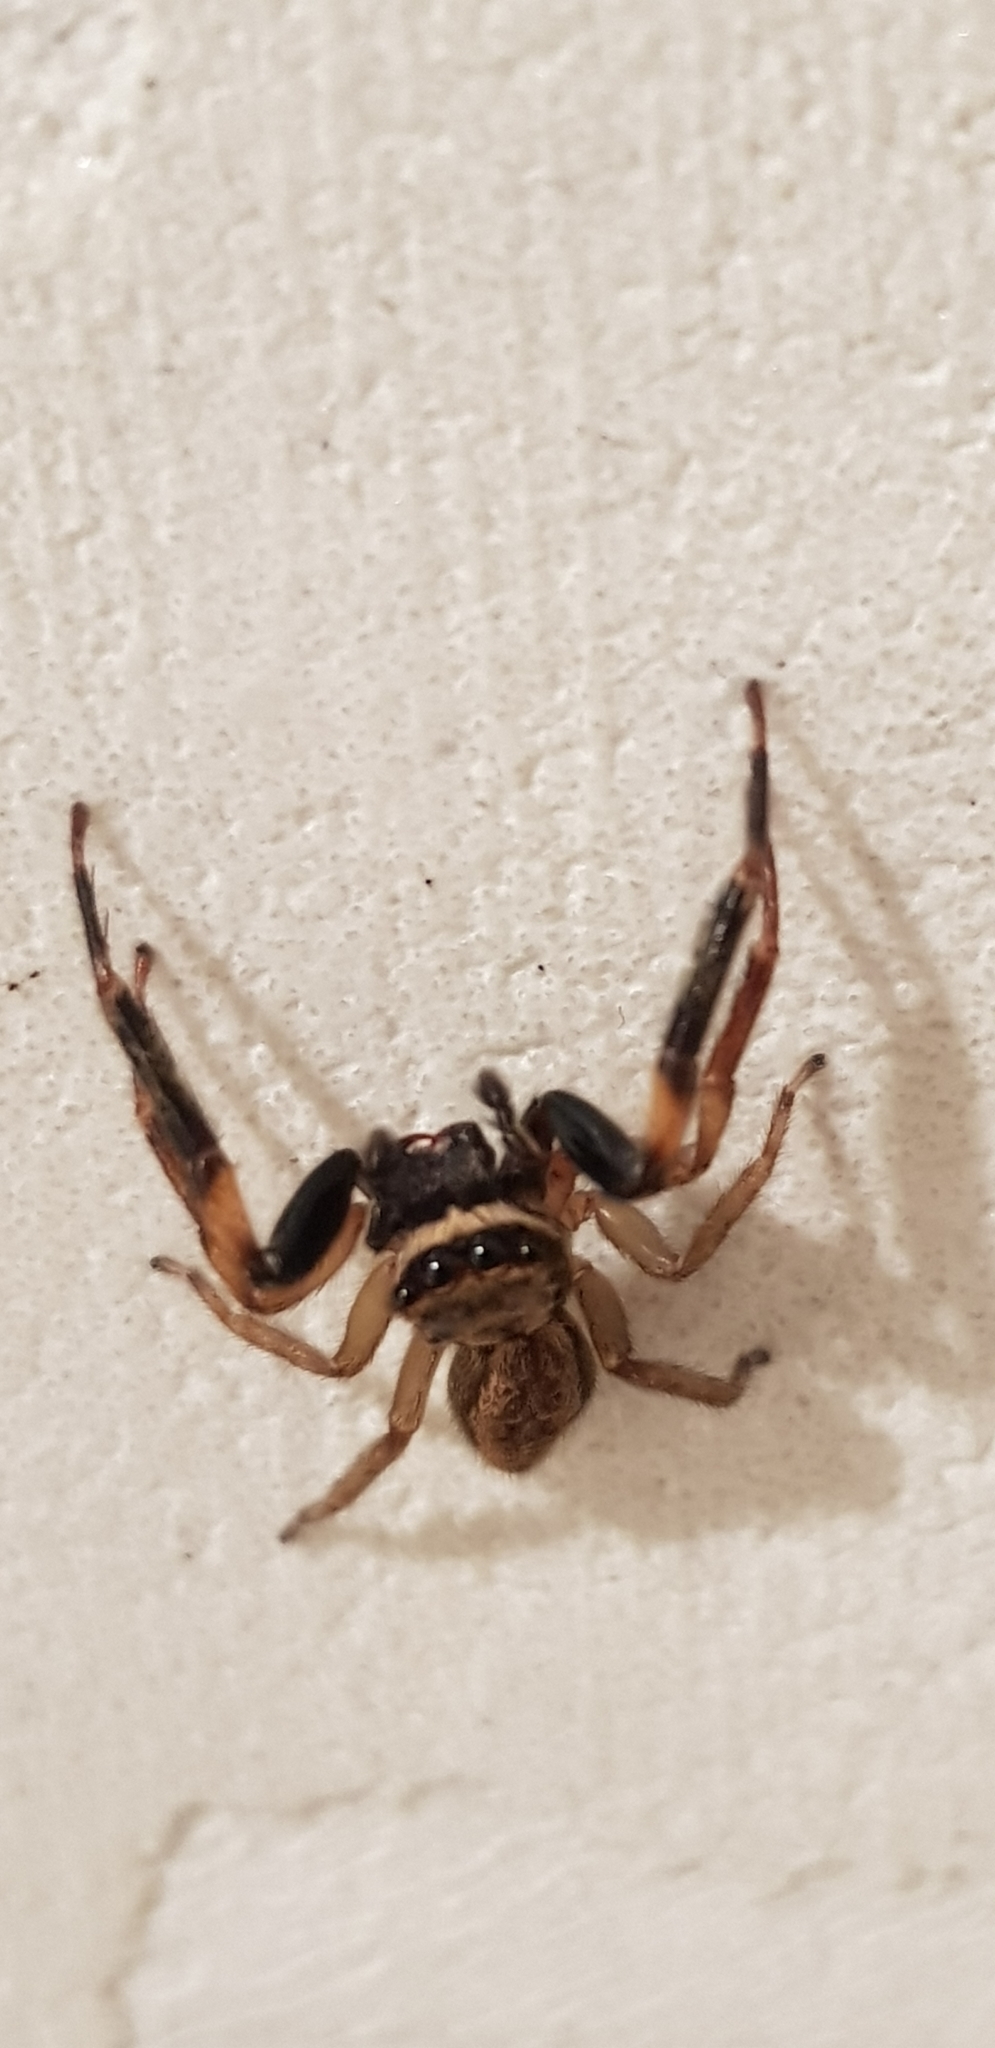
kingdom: Animalia
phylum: Arthropoda
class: Arachnida
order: Araneae
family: Salticidae
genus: Trite
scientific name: Trite auricoma
